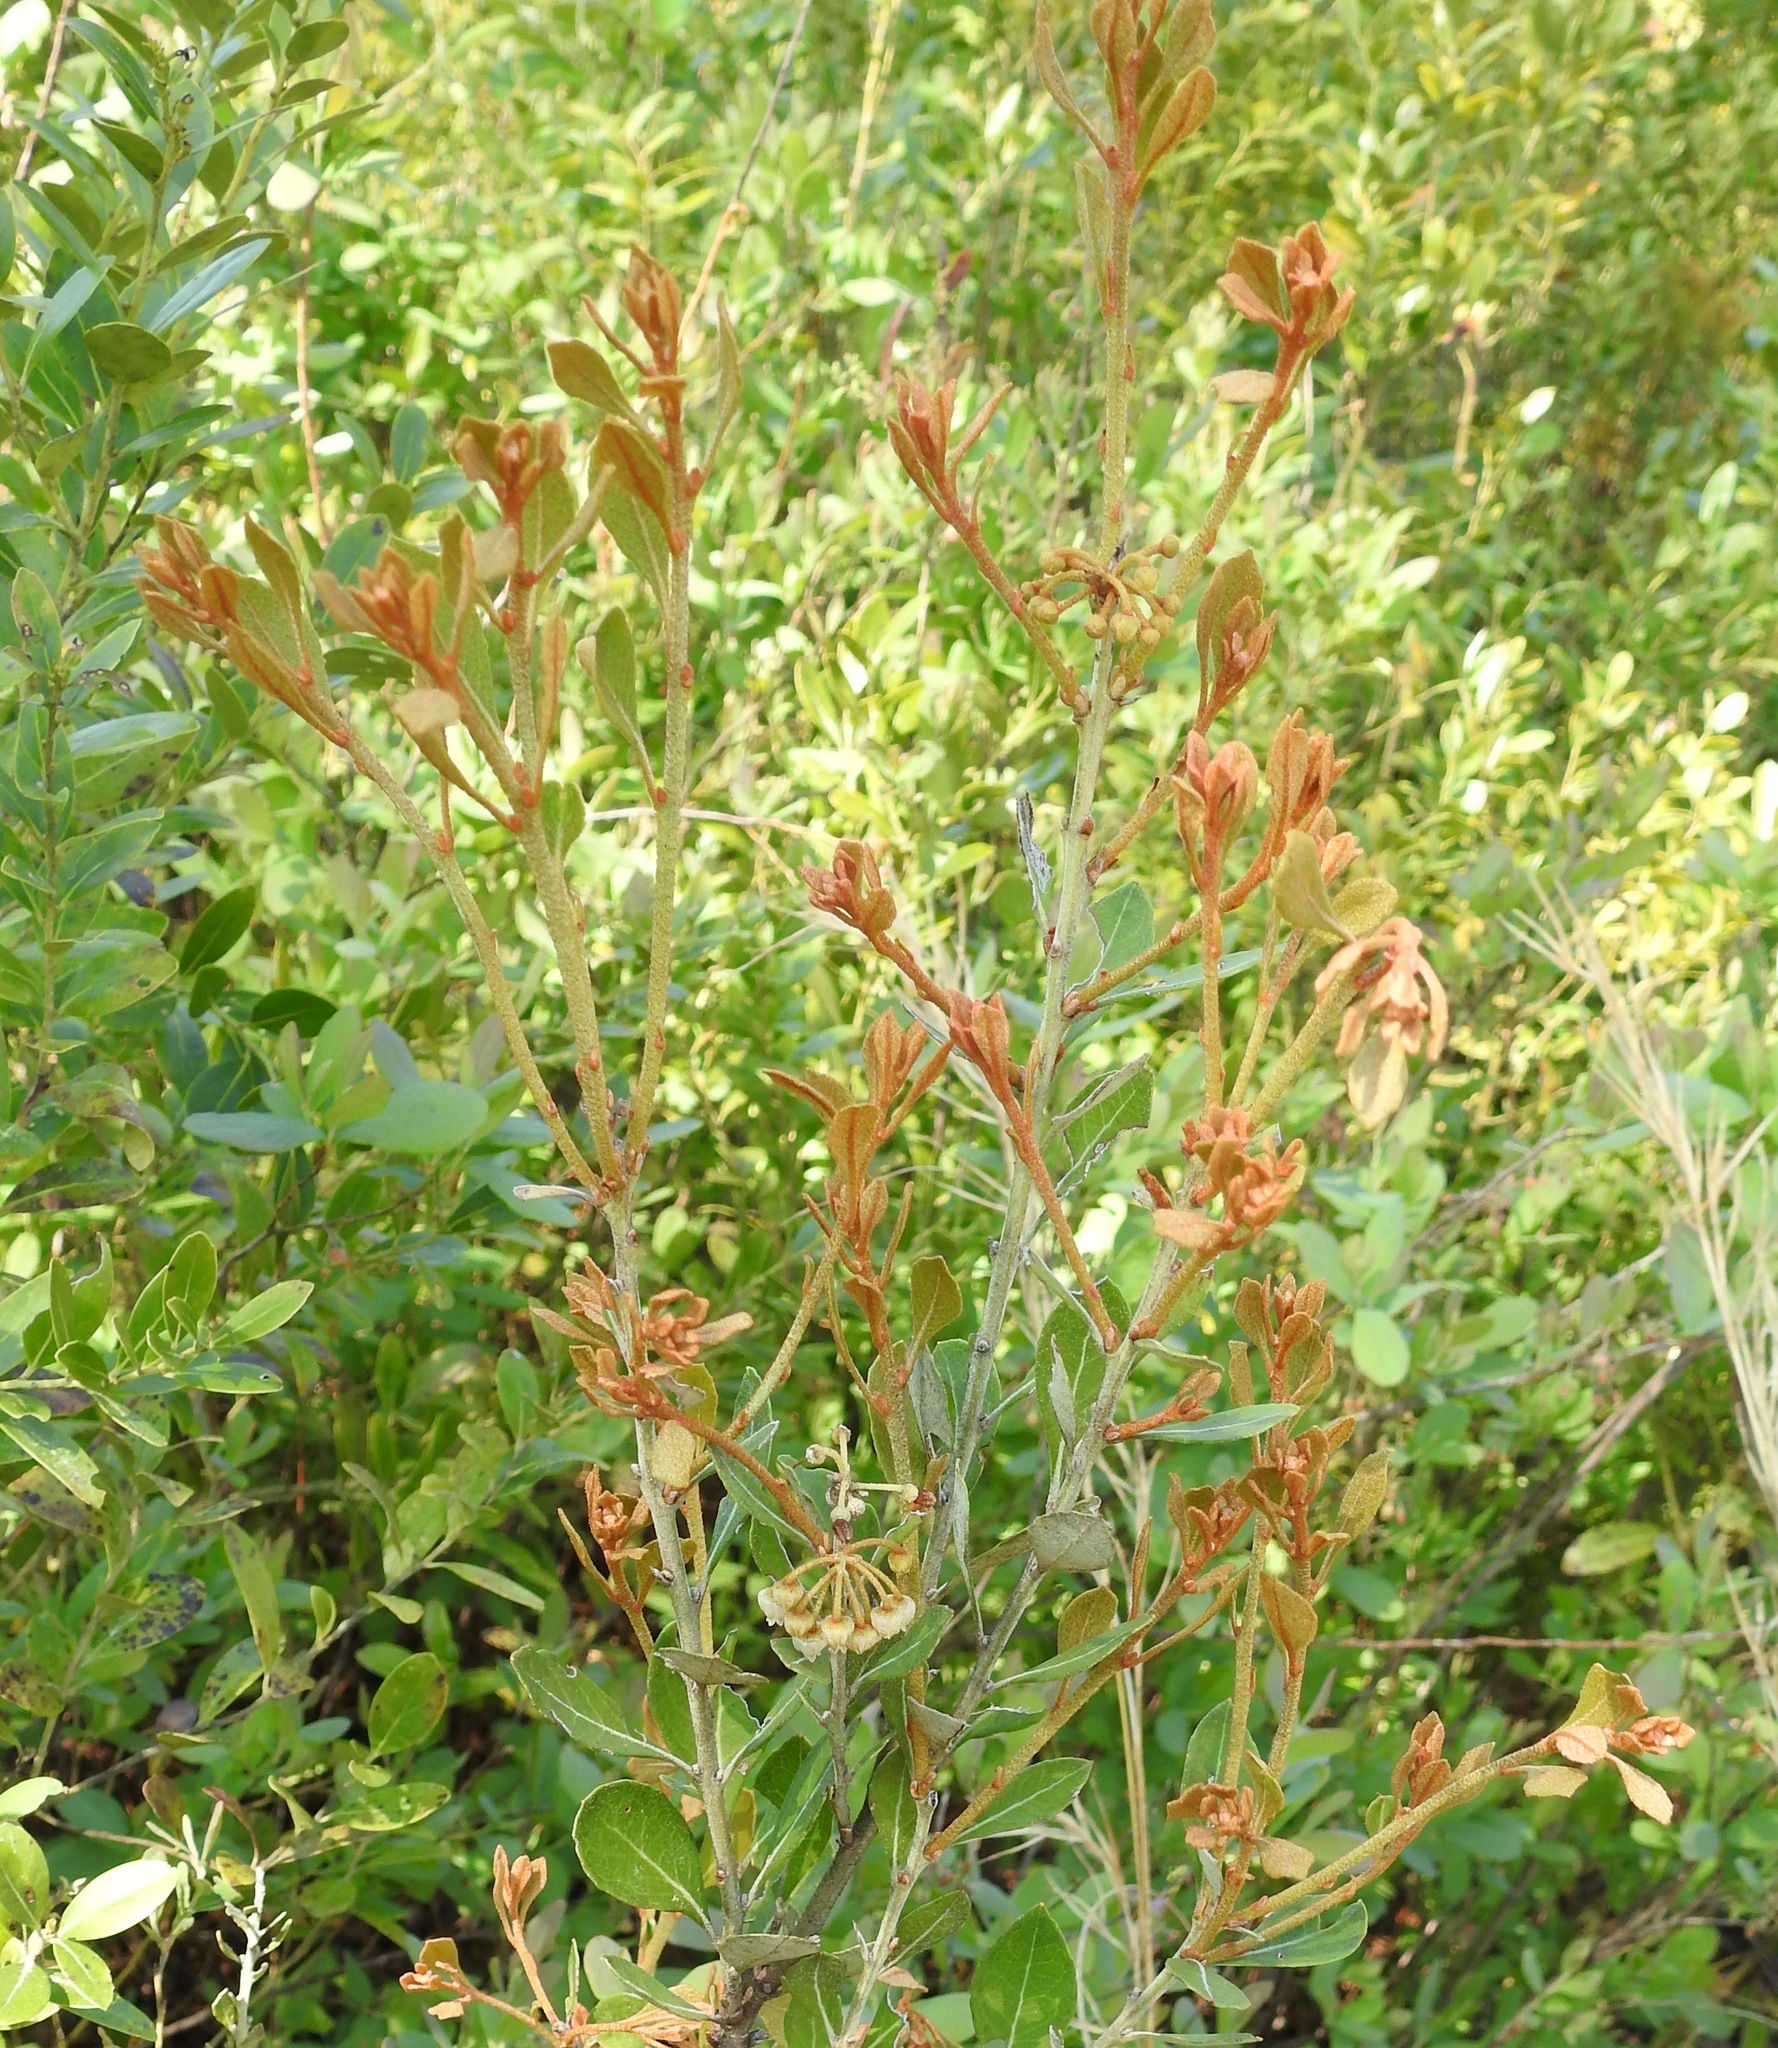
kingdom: Plantae
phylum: Tracheophyta
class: Magnoliopsida
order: Ericales
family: Ericaceae
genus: Lyonia
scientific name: Lyonia fruticosa
